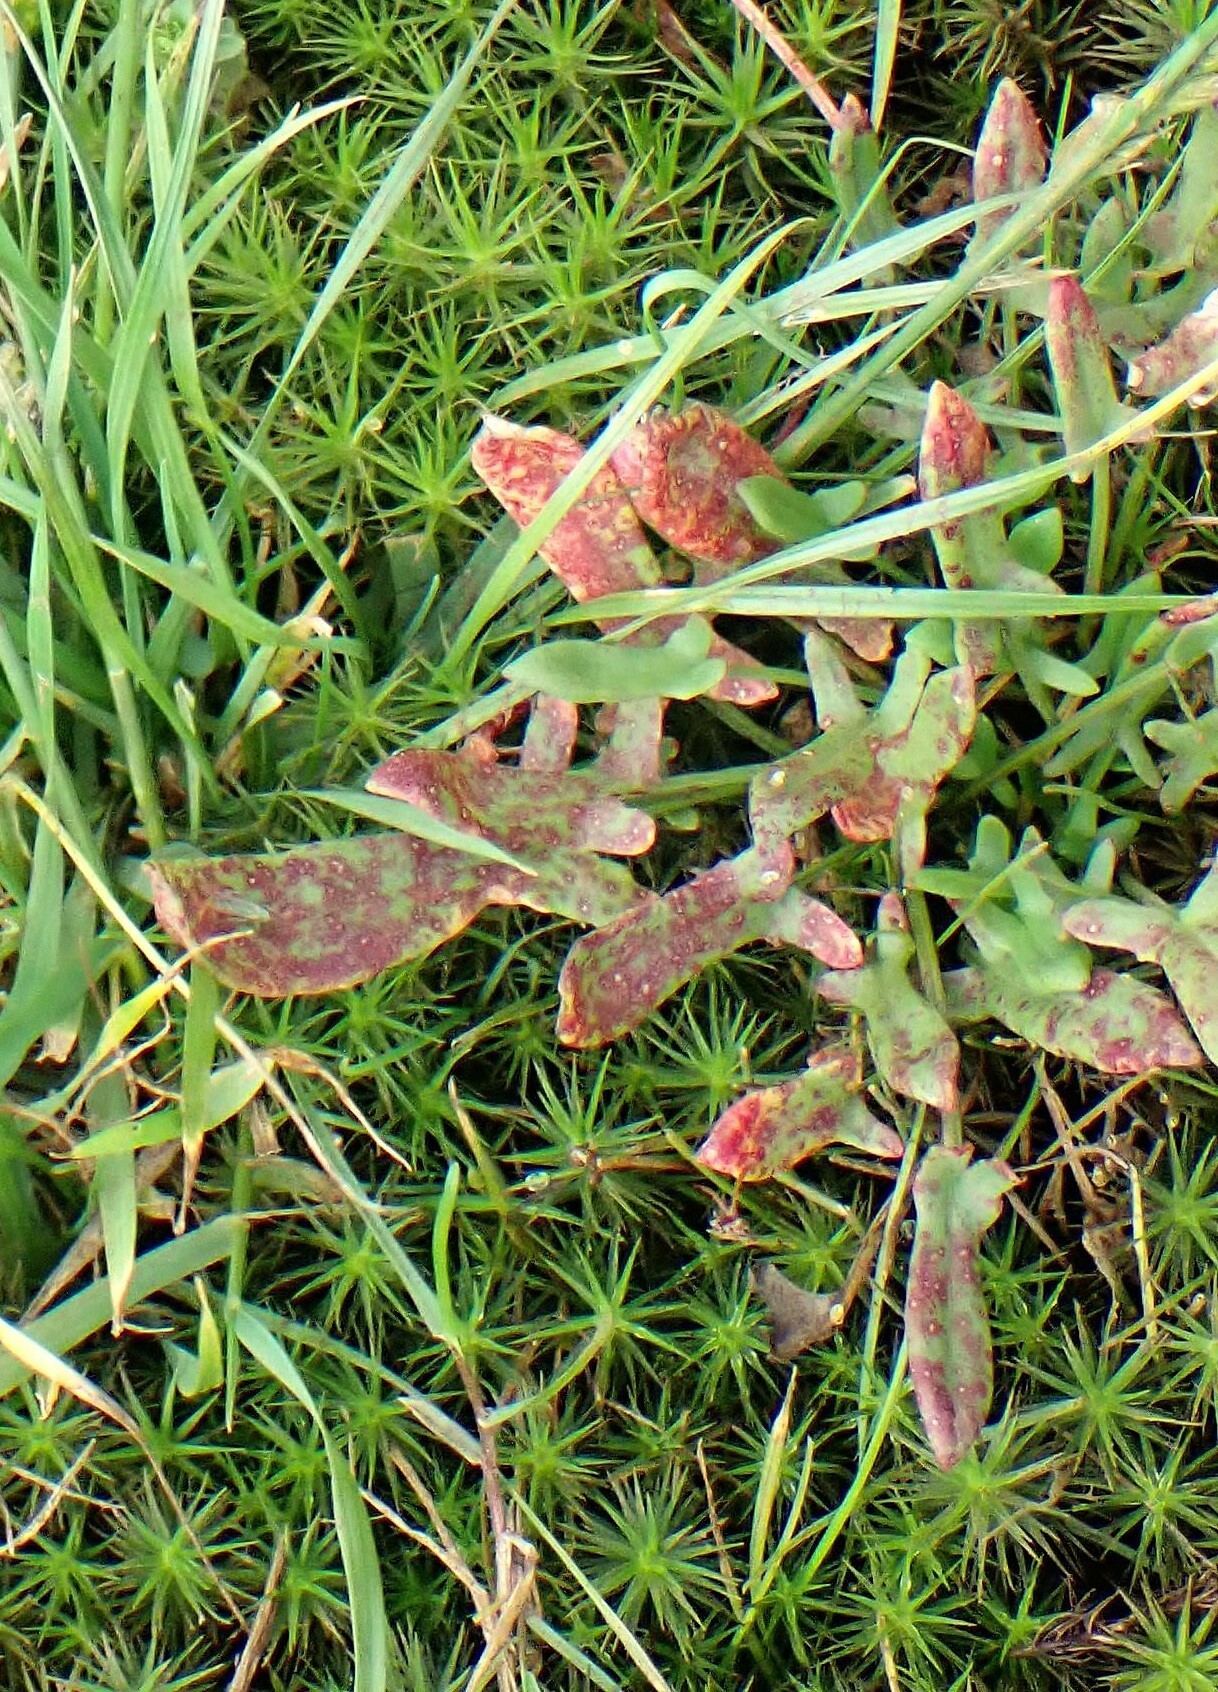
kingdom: Plantae
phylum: Tracheophyta
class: Magnoliopsida
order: Caryophyllales
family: Polygonaceae
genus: Rumex
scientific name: Rumex acetosella
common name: Common sheep sorrel
